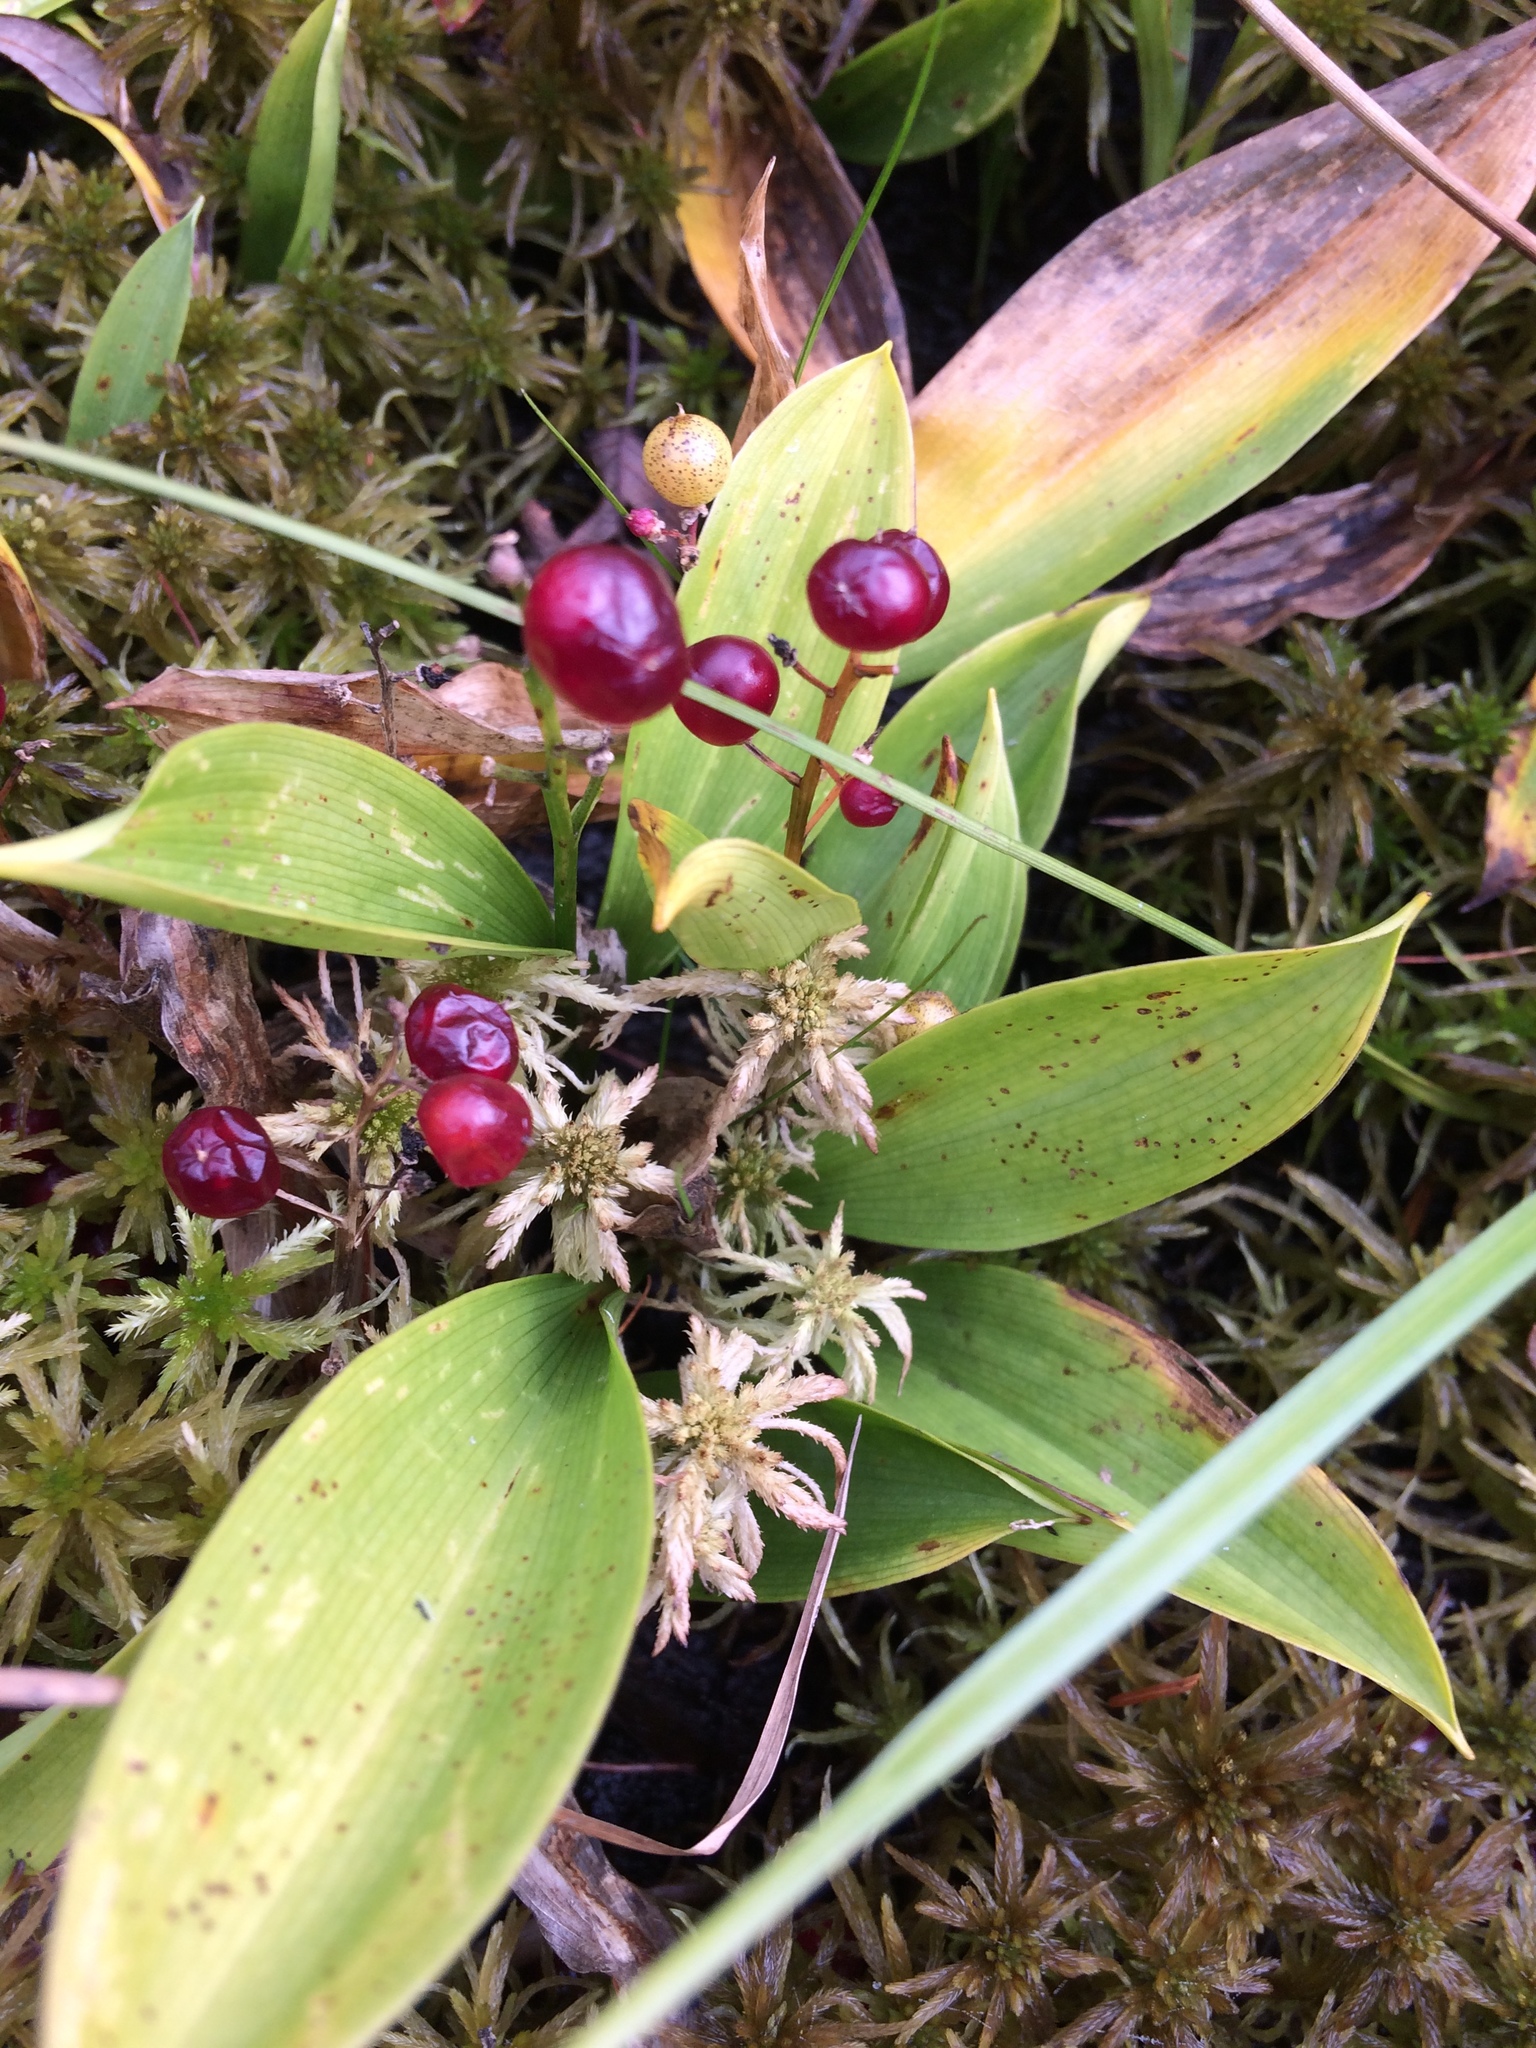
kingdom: Plantae
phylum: Tracheophyta
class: Liliopsida
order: Asparagales
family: Asparagaceae
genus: Maianthemum
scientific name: Maianthemum trifolium
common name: Swamp false solomon's seal
